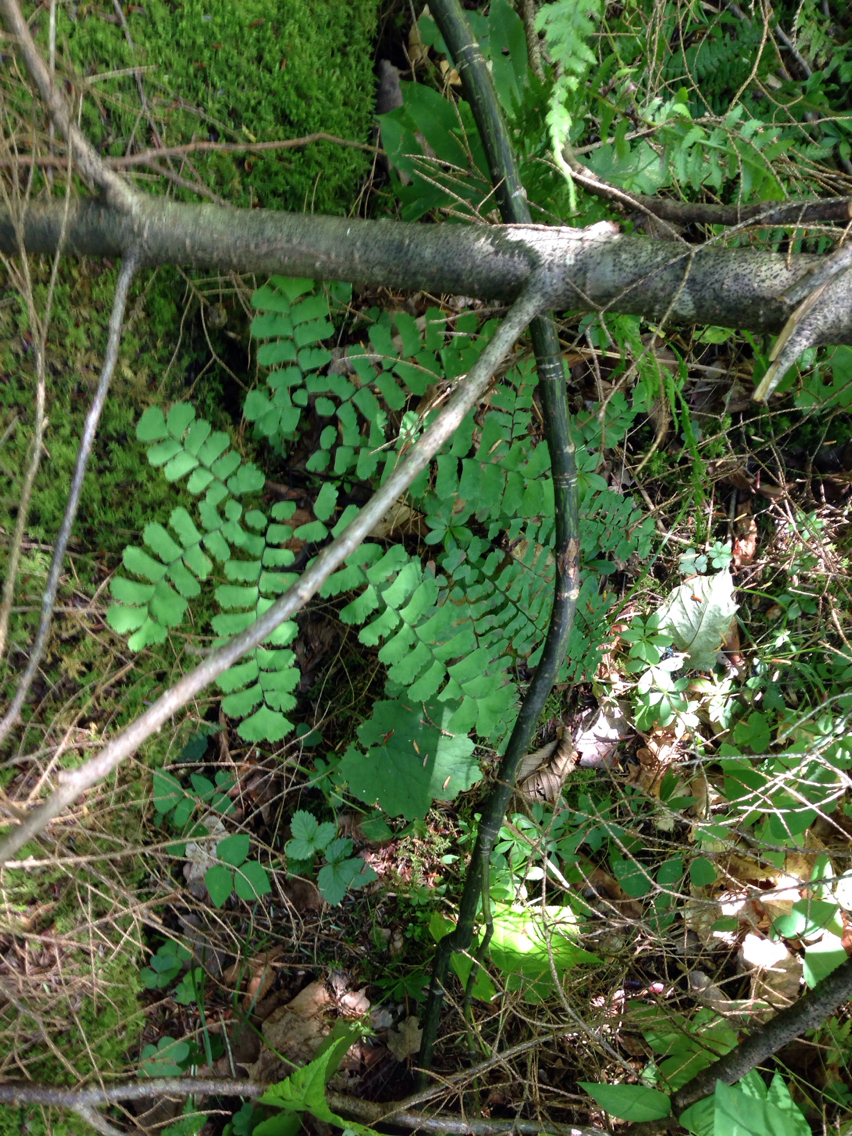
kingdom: Plantae
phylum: Tracheophyta
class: Polypodiopsida
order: Polypodiales
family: Pteridaceae
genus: Adiantum
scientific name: Adiantum pedatum
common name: Five-finger fern
